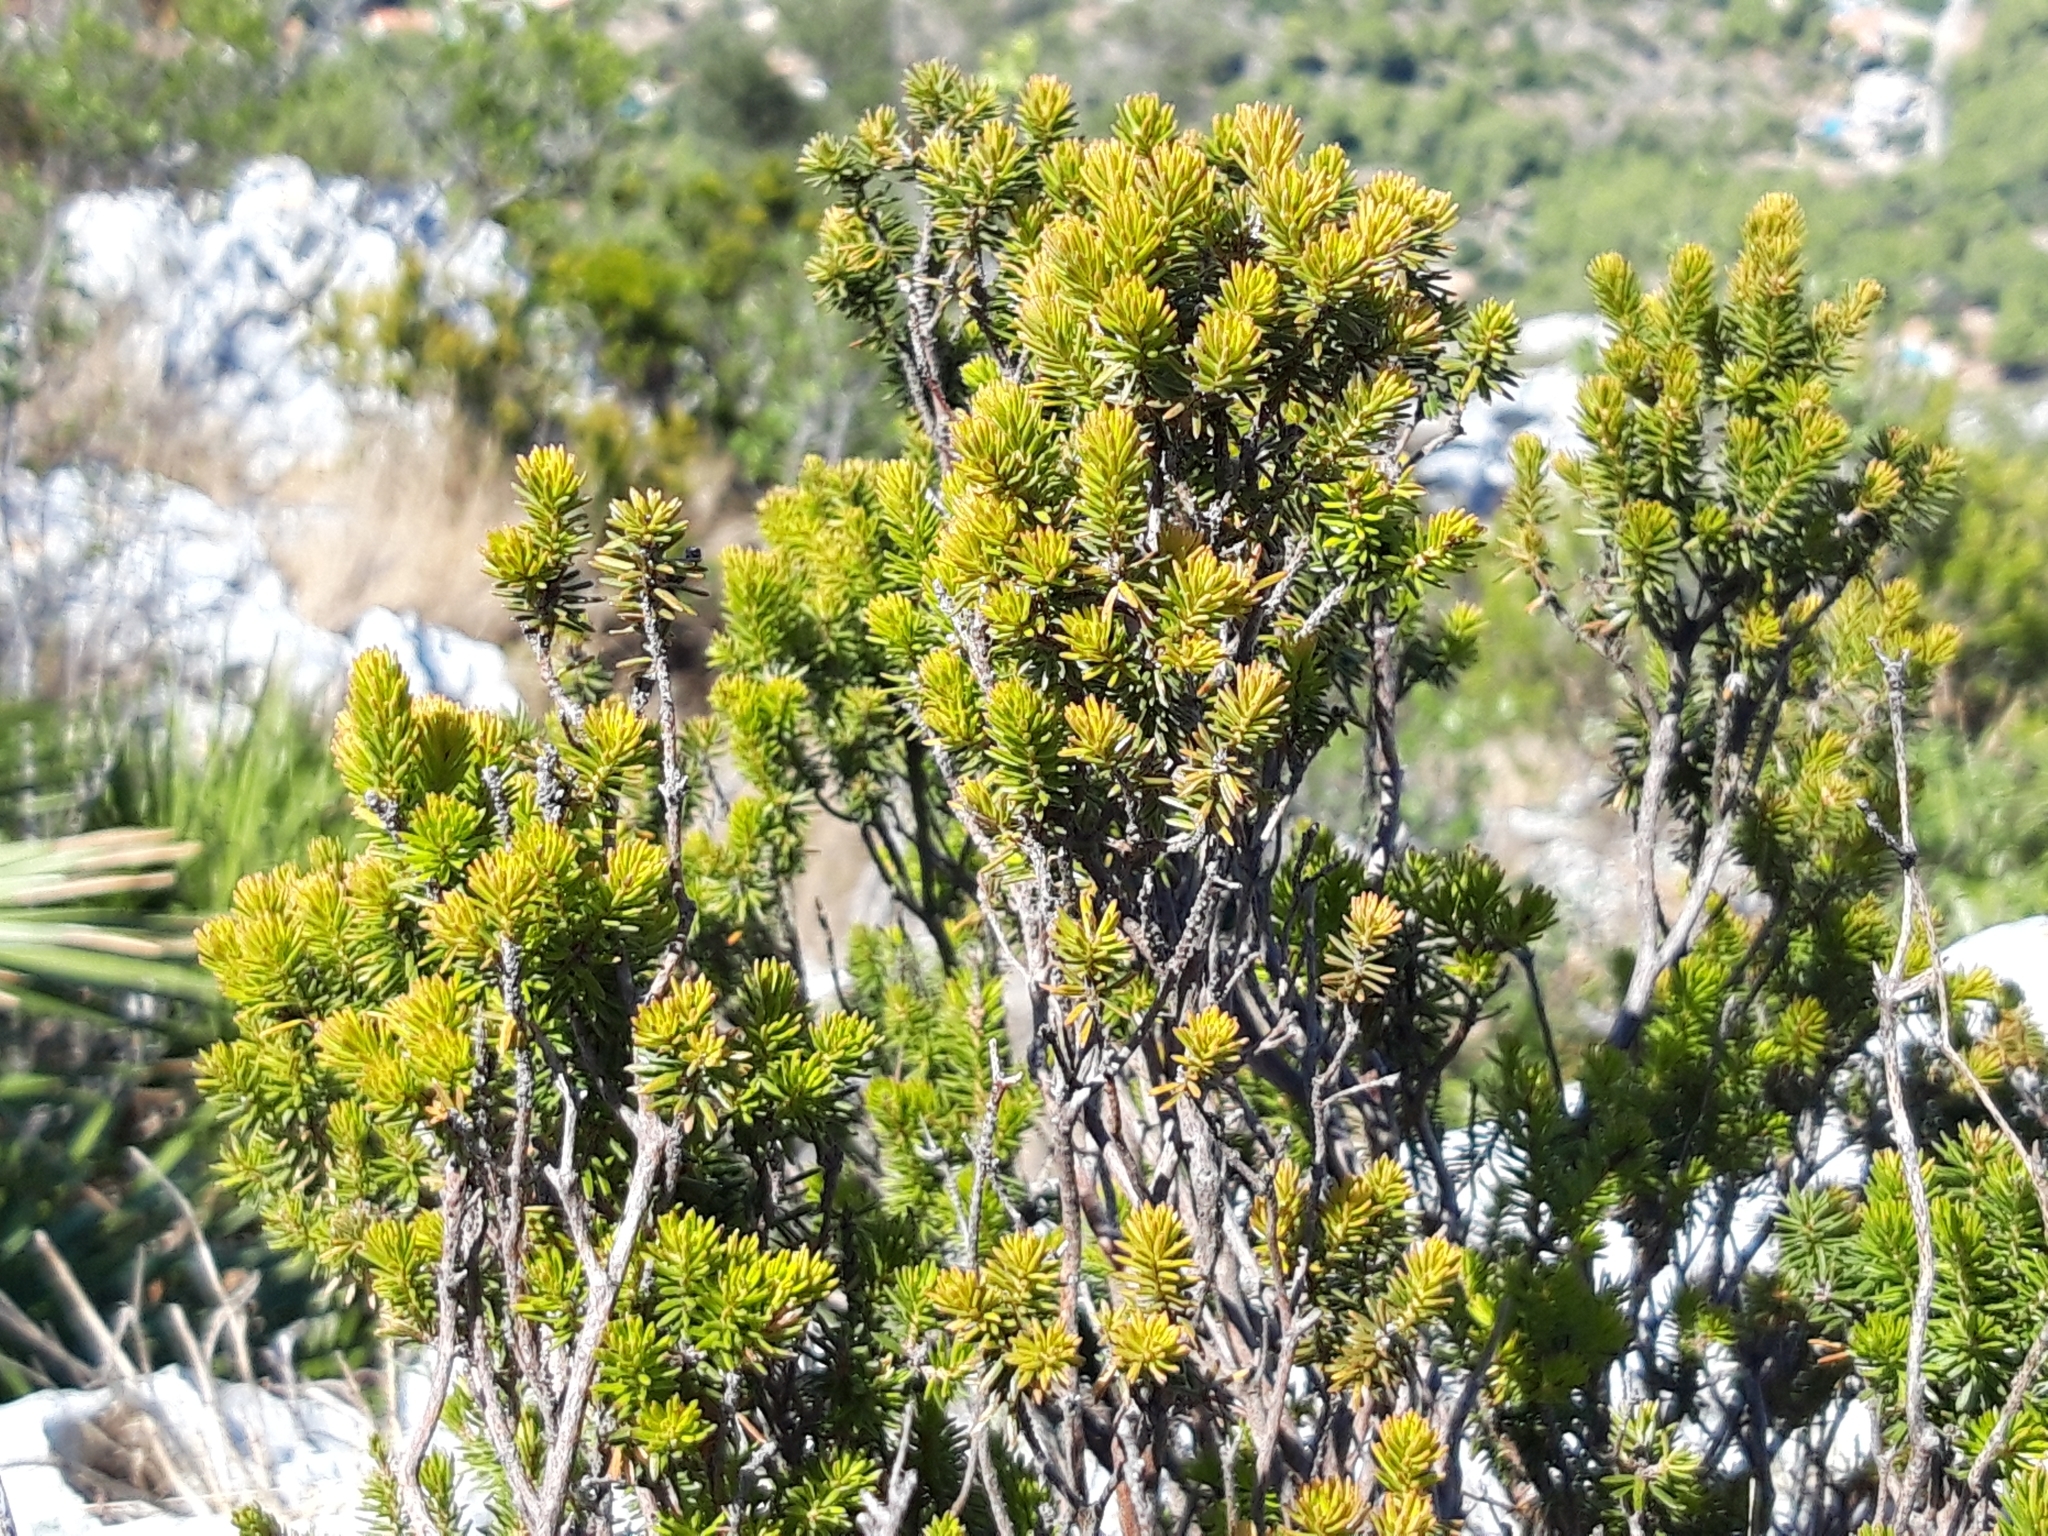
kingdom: Plantae
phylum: Tracheophyta
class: Magnoliopsida
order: Ericales
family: Ericaceae
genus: Erica
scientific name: Erica multiflora
